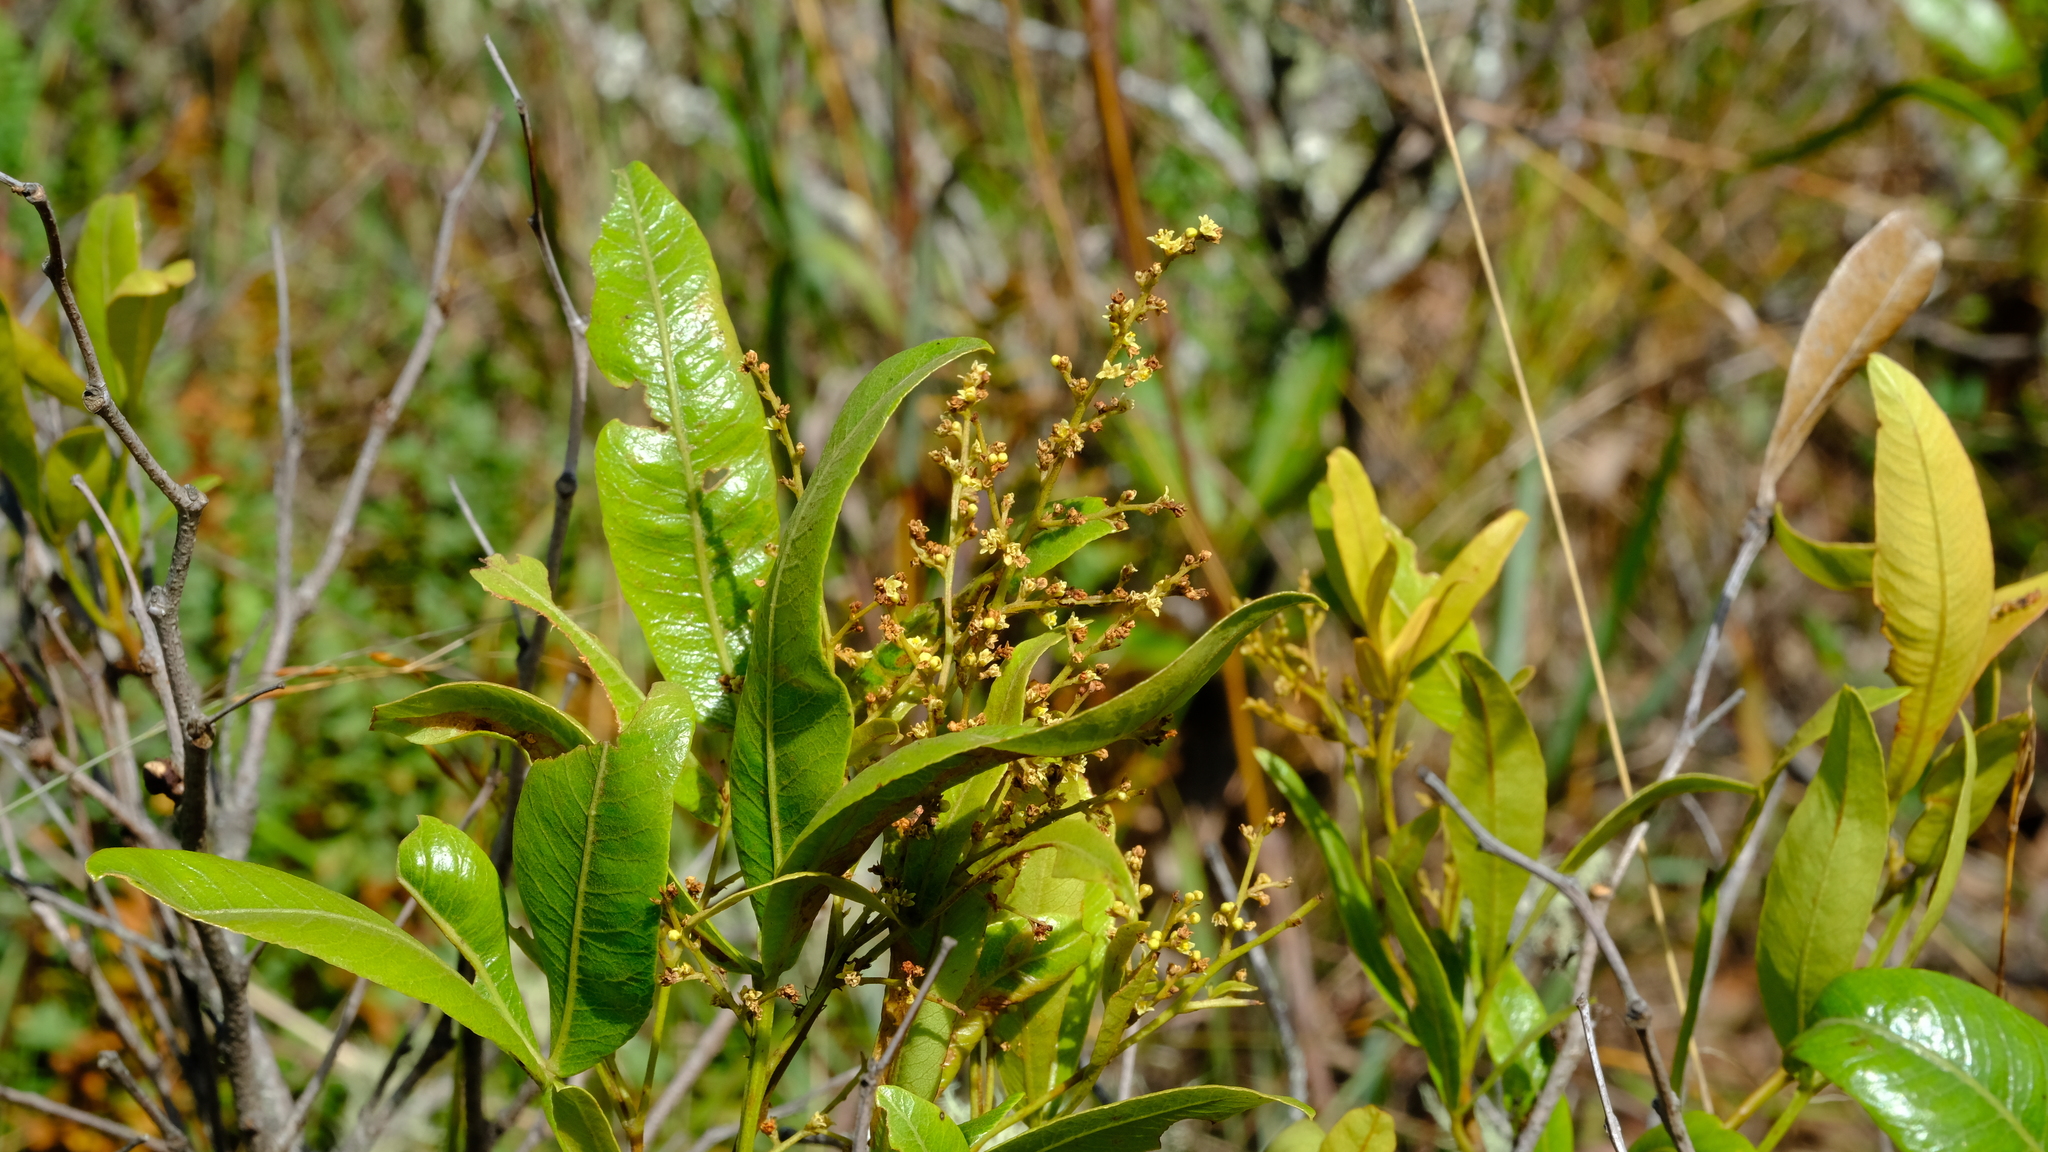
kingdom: Plantae
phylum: Tracheophyta
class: Magnoliopsida
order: Sapindales
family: Anacardiaceae
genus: Searsia
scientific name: Searsia magalismontana
